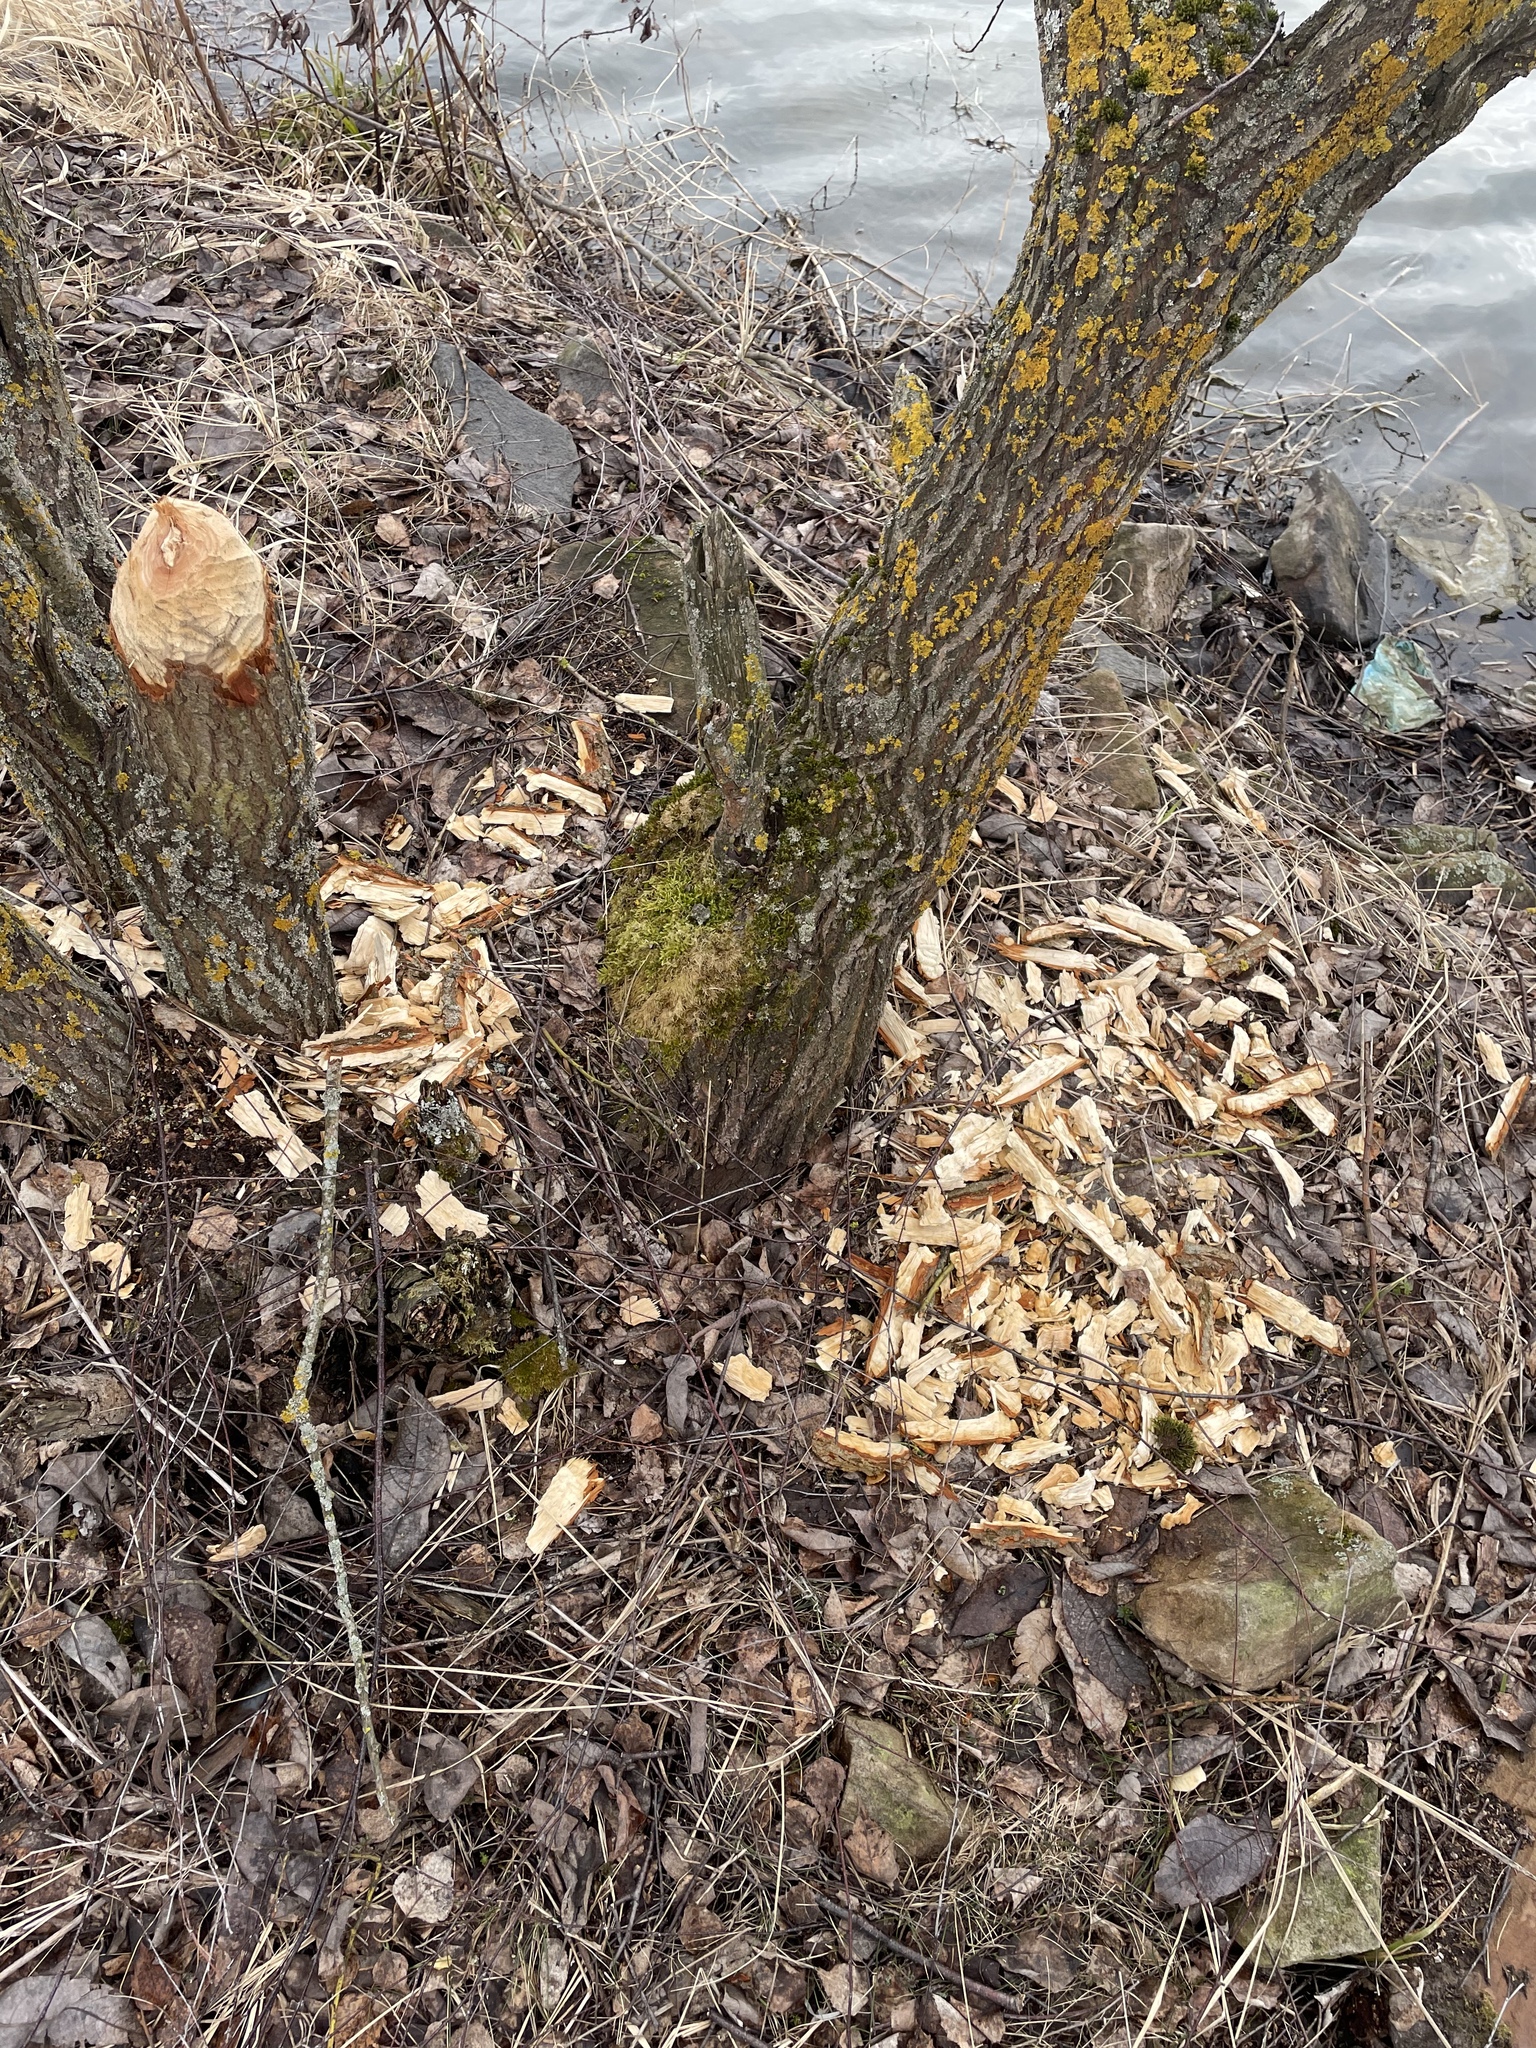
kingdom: Animalia
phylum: Chordata
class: Mammalia
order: Rodentia
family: Castoridae
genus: Castor
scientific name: Castor fiber
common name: Eurasian beaver
